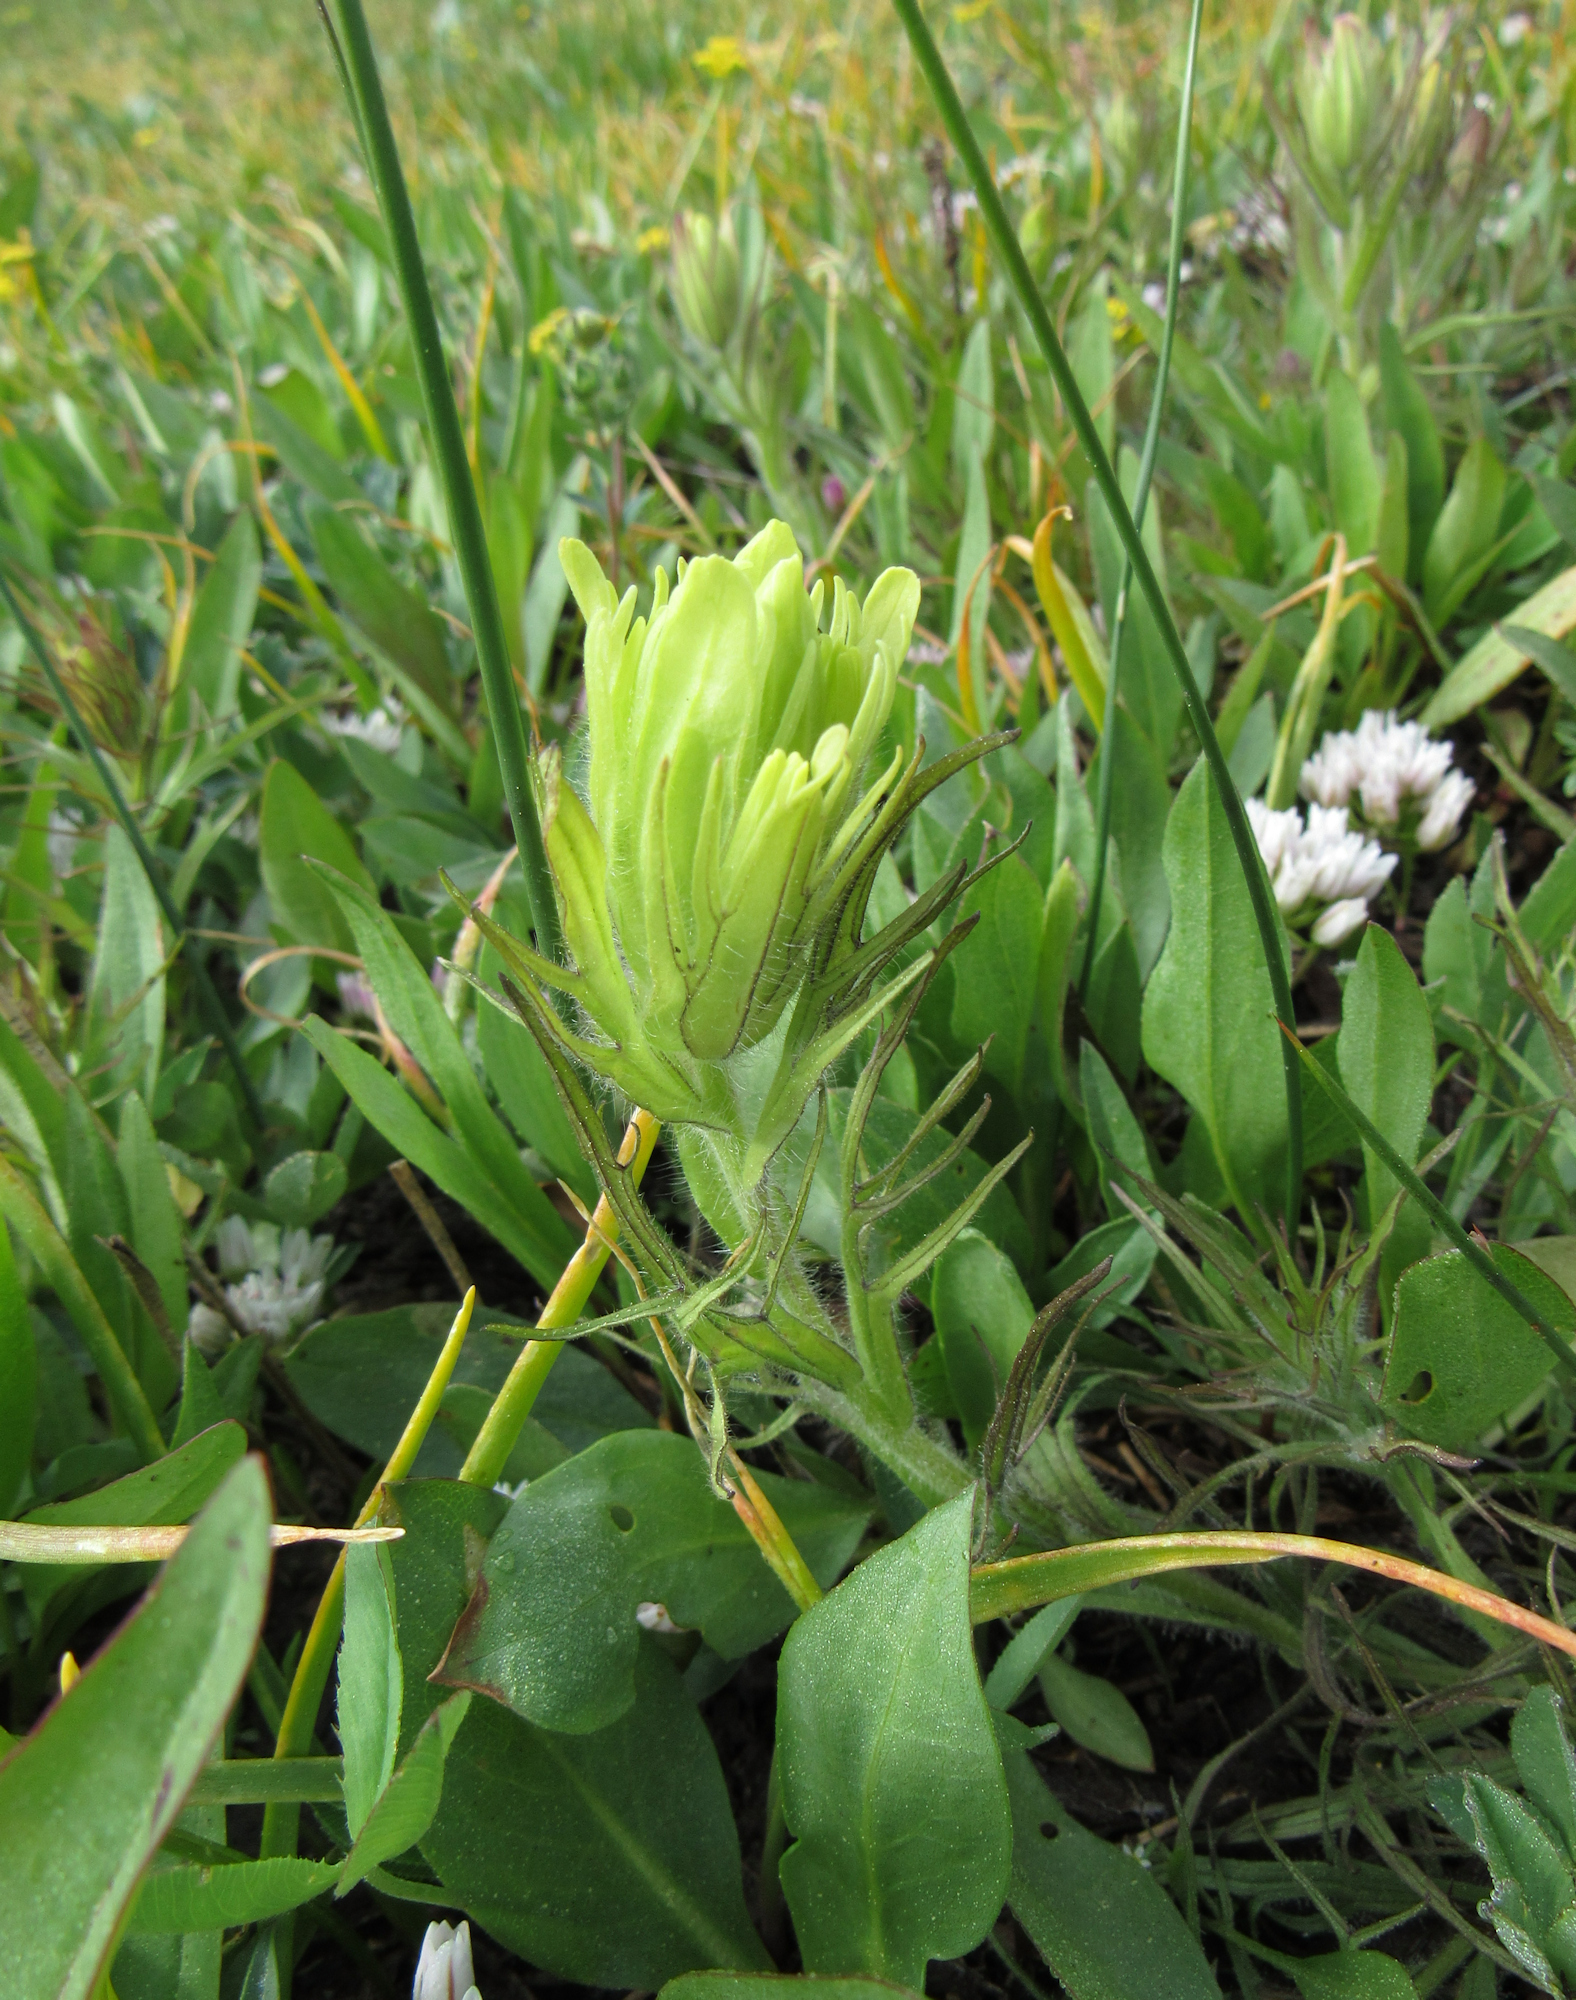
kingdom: Plantae
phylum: Tracheophyta
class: Magnoliopsida
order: Lamiales
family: Orobanchaceae
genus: Castilleja
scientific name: Castilleja cusickii
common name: Cusick's paintbrush
